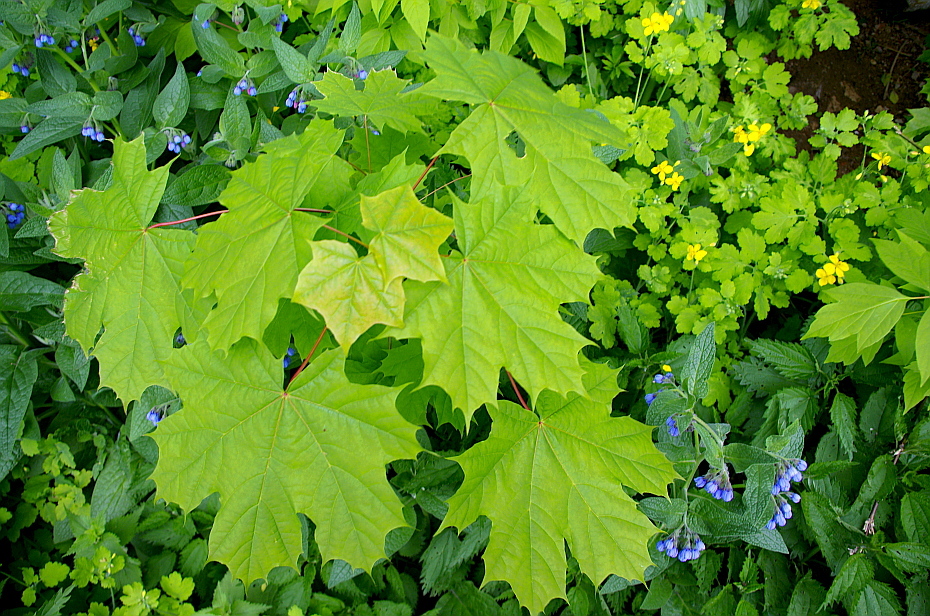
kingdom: Plantae
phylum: Tracheophyta
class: Magnoliopsida
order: Sapindales
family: Sapindaceae
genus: Acer
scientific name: Acer platanoides
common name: Norway maple
